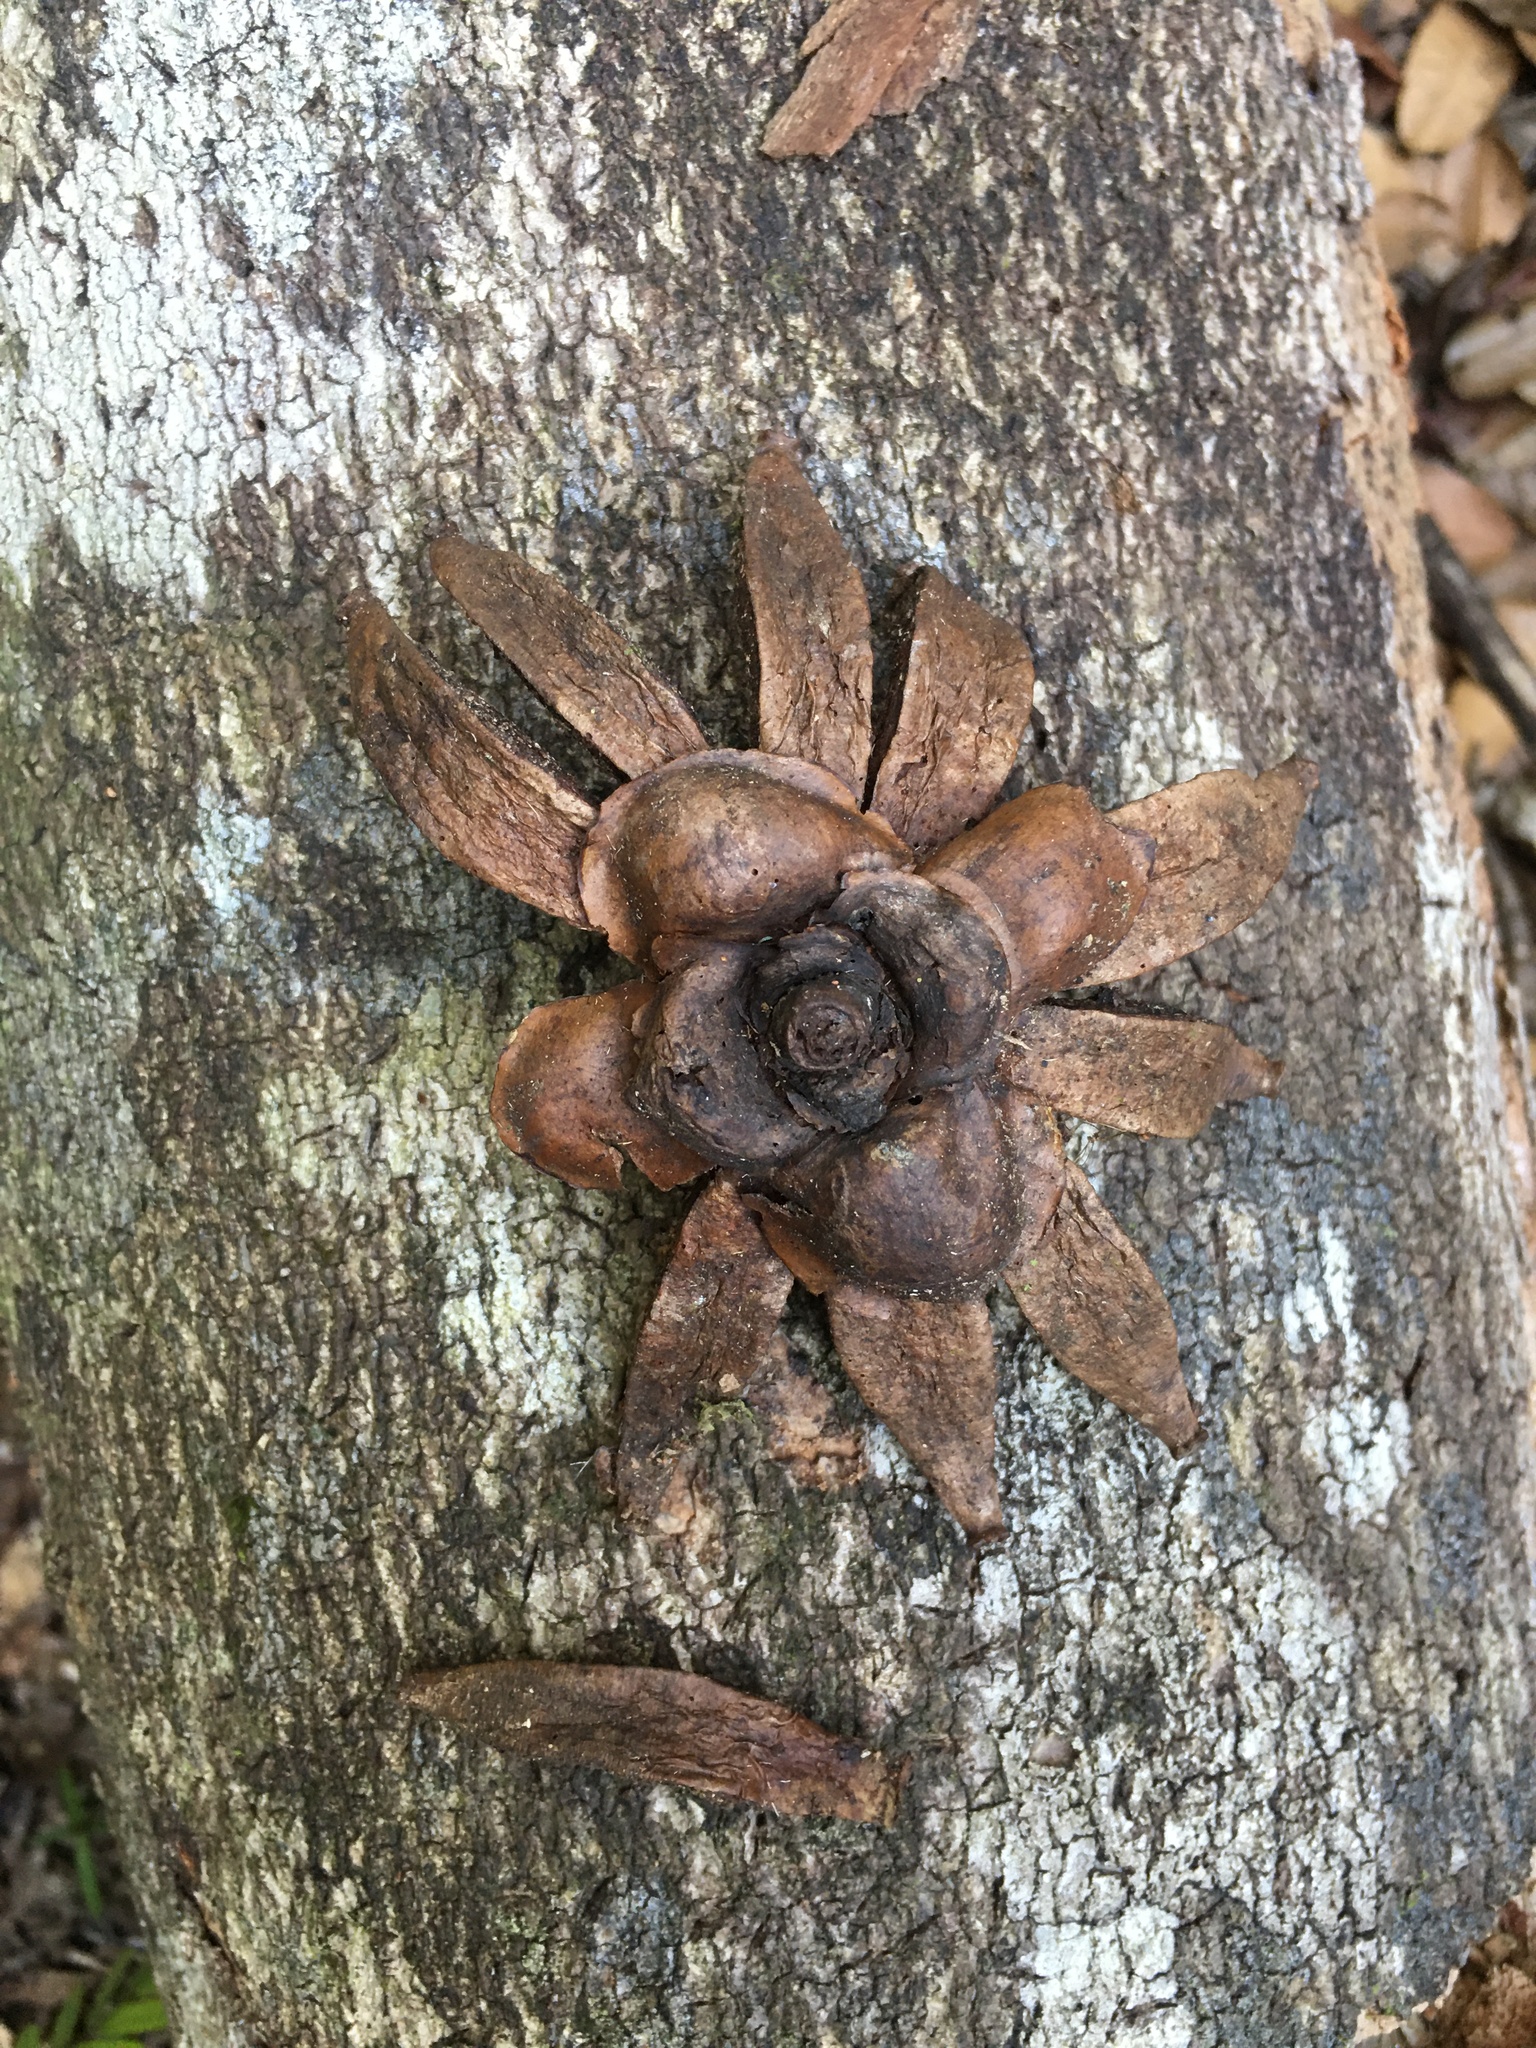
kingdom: Plantae
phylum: Tracheophyta
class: Magnoliopsida
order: Malpighiales
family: Clusiaceae
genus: Clusia
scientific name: Clusia nemorosa
